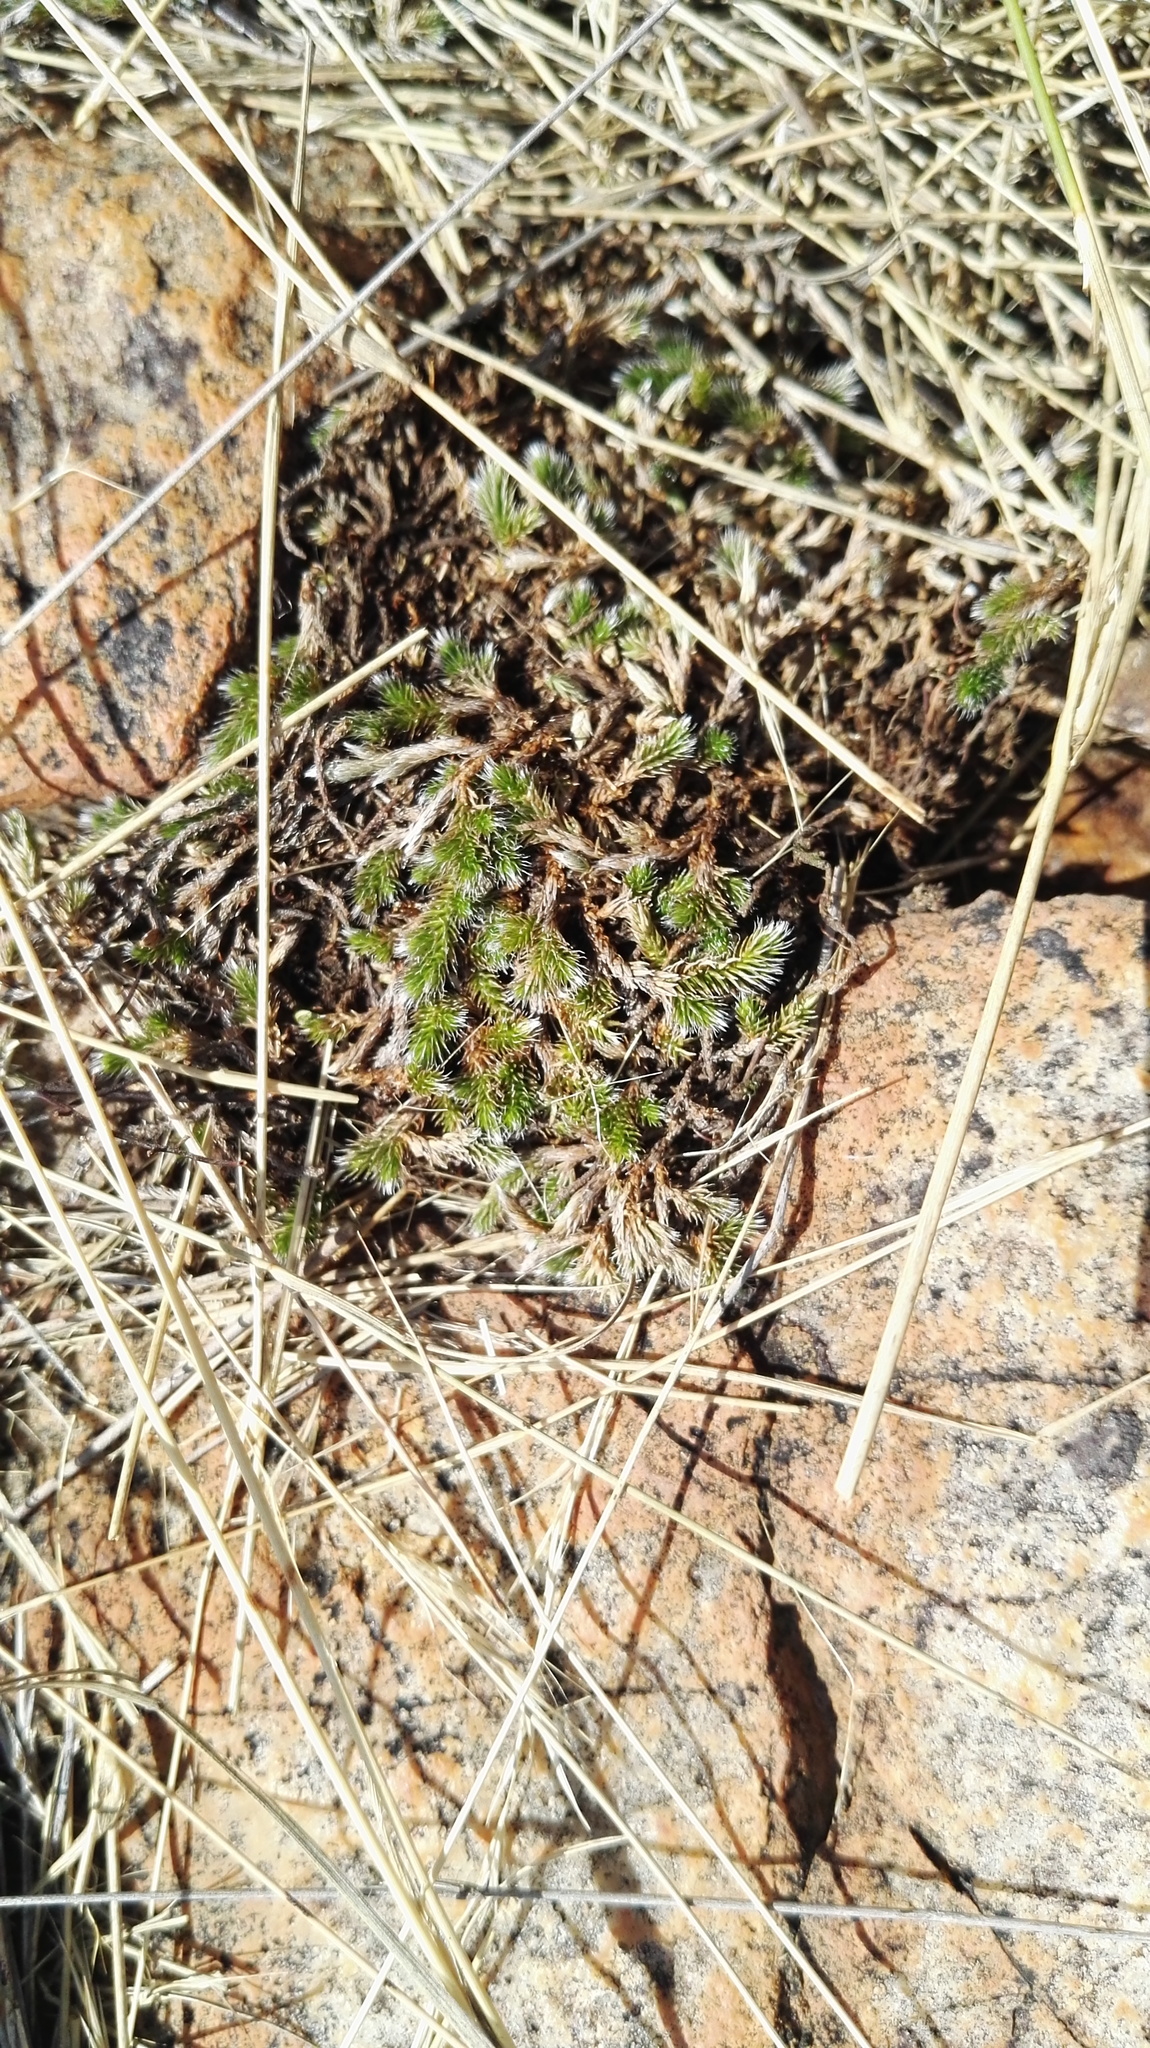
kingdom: Plantae
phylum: Tracheophyta
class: Lycopodiopsida
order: Selaginellales
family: Selaginellaceae
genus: Selaginella
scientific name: Selaginella dregei
